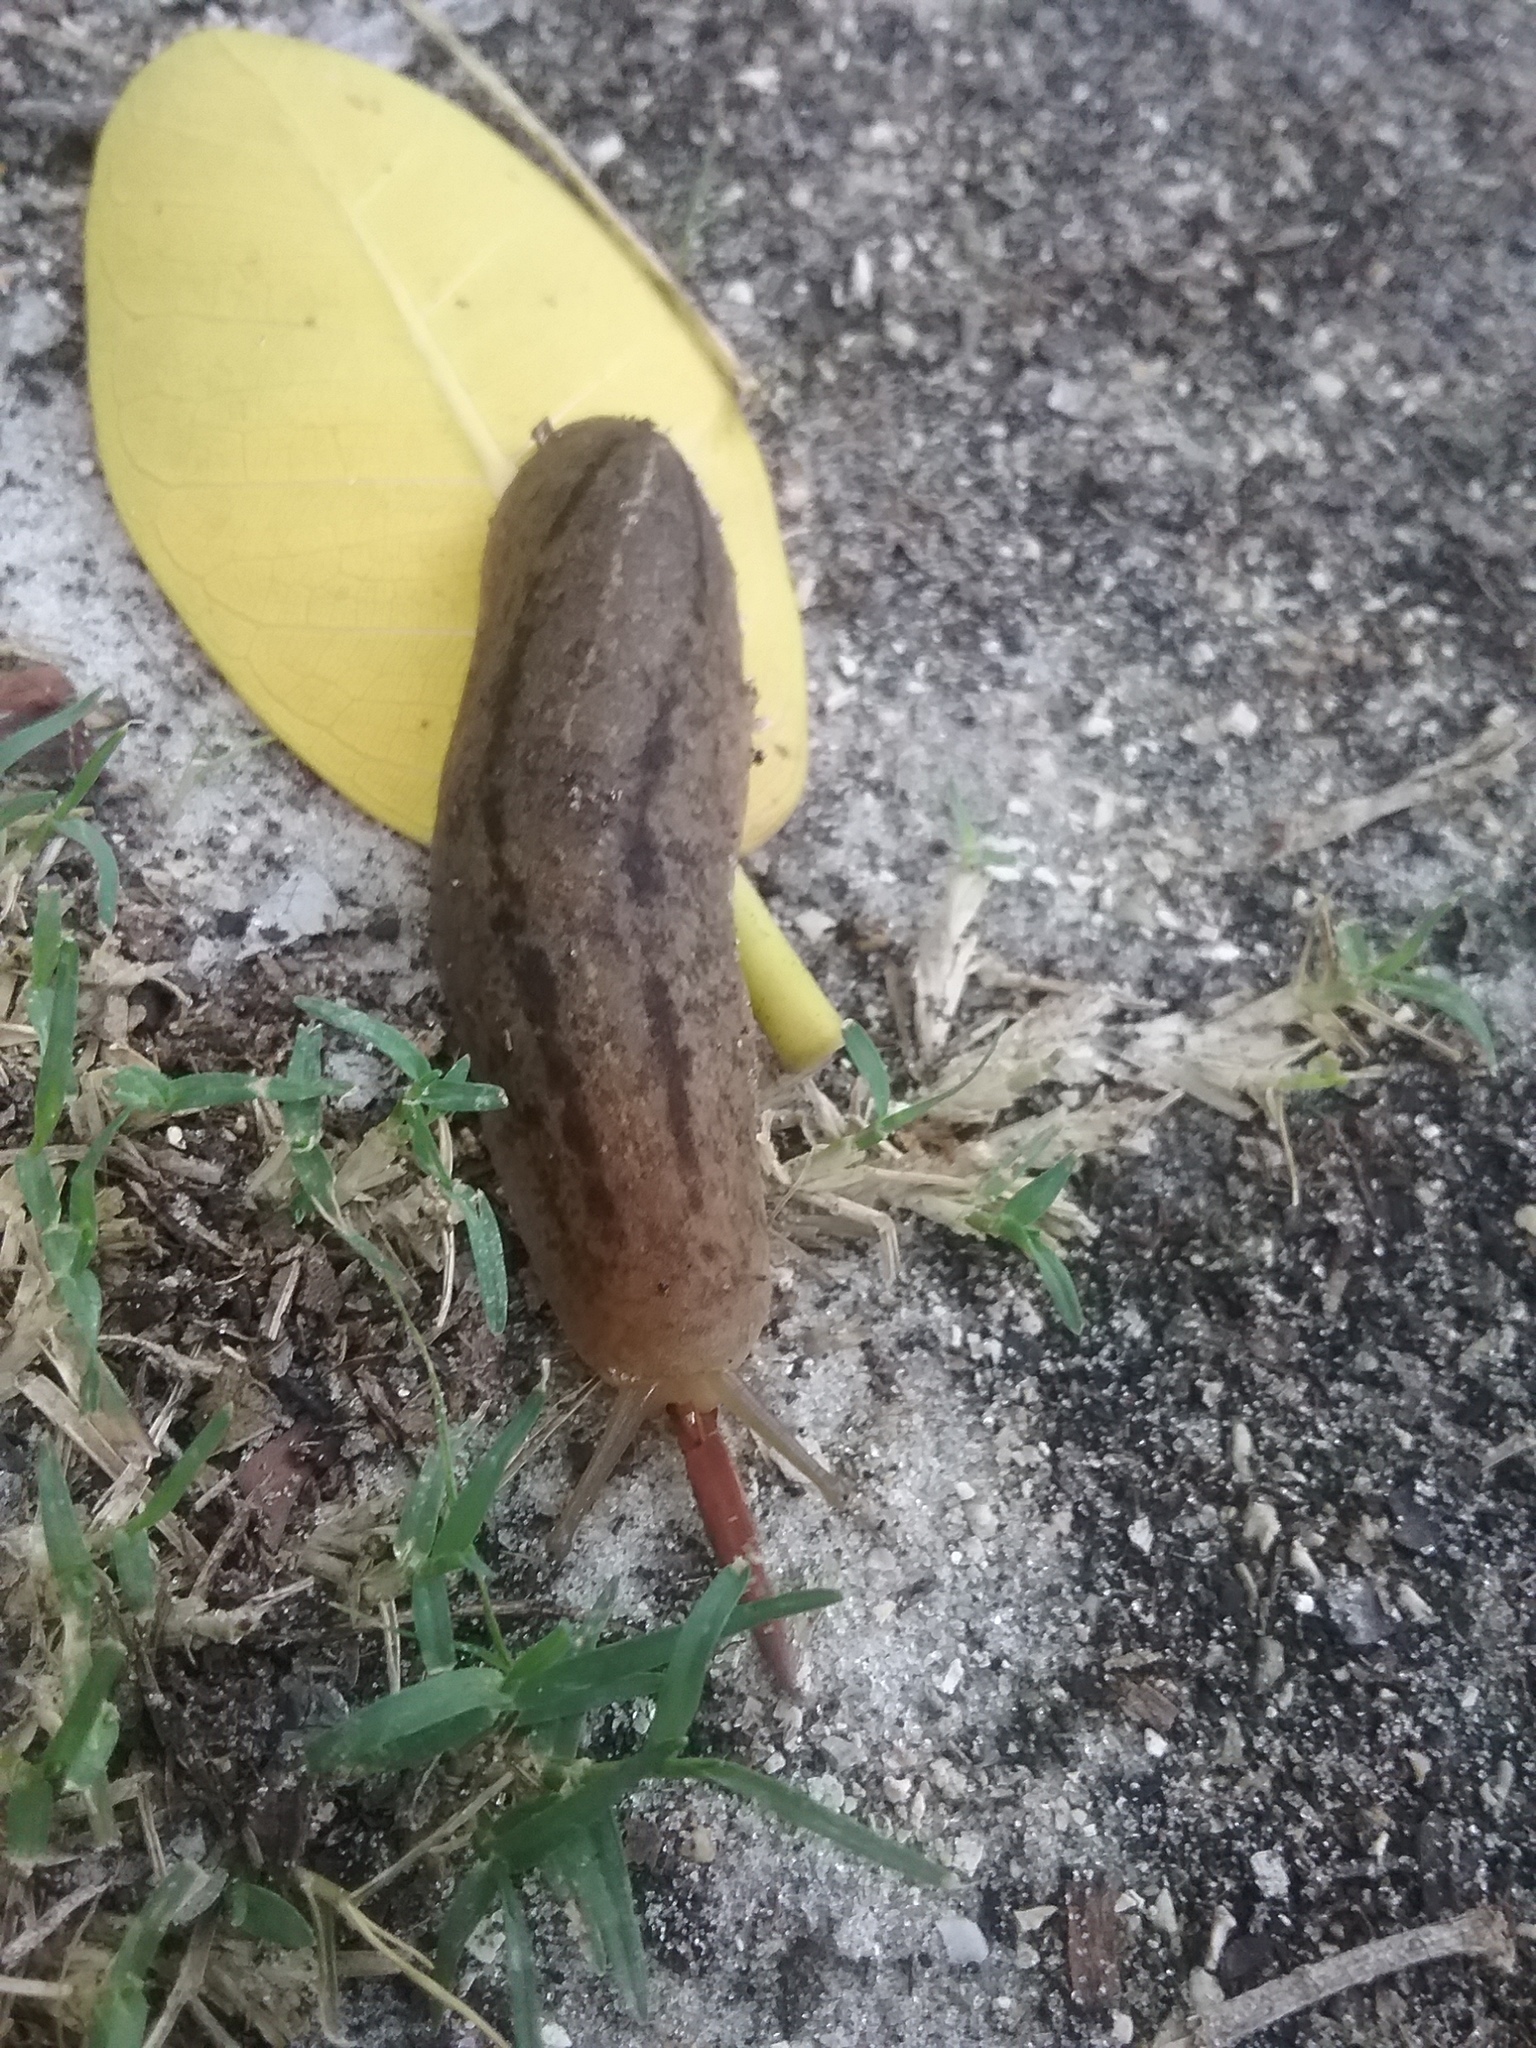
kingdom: Animalia
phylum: Mollusca
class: Gastropoda
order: Systellommatophora
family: Veronicellidae
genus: Leidyula
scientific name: Leidyula floridana
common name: Florida leatherleaf
